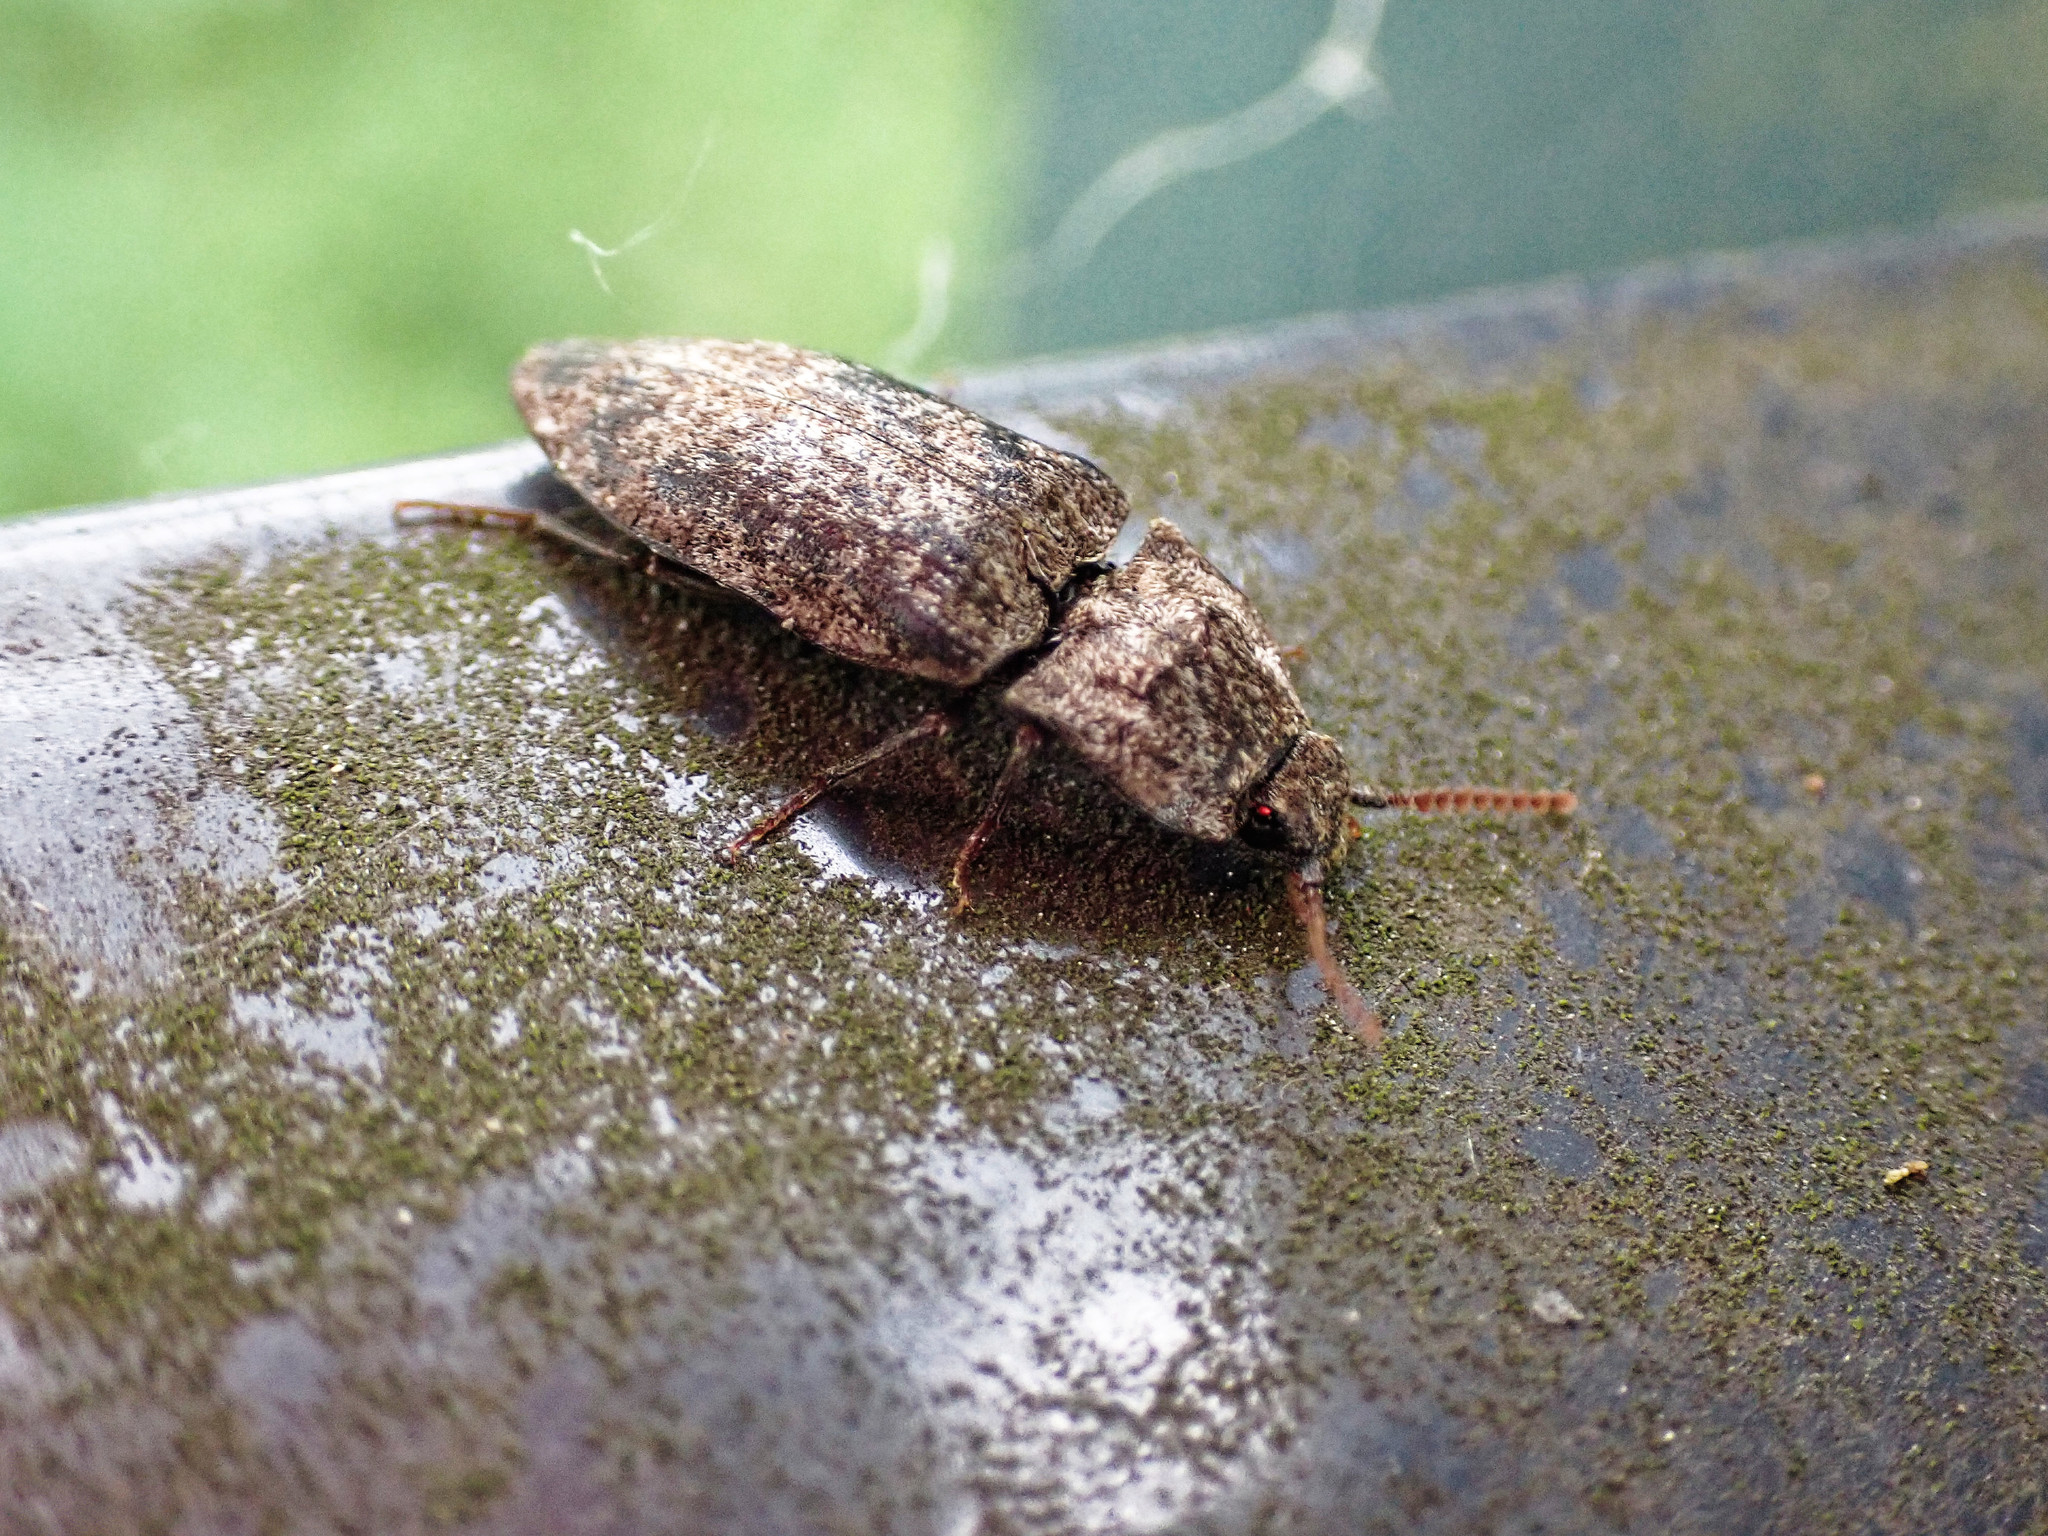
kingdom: Animalia
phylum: Arthropoda
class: Insecta
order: Coleoptera
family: Elateridae
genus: Agrypnus
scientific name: Agrypnus murinus
